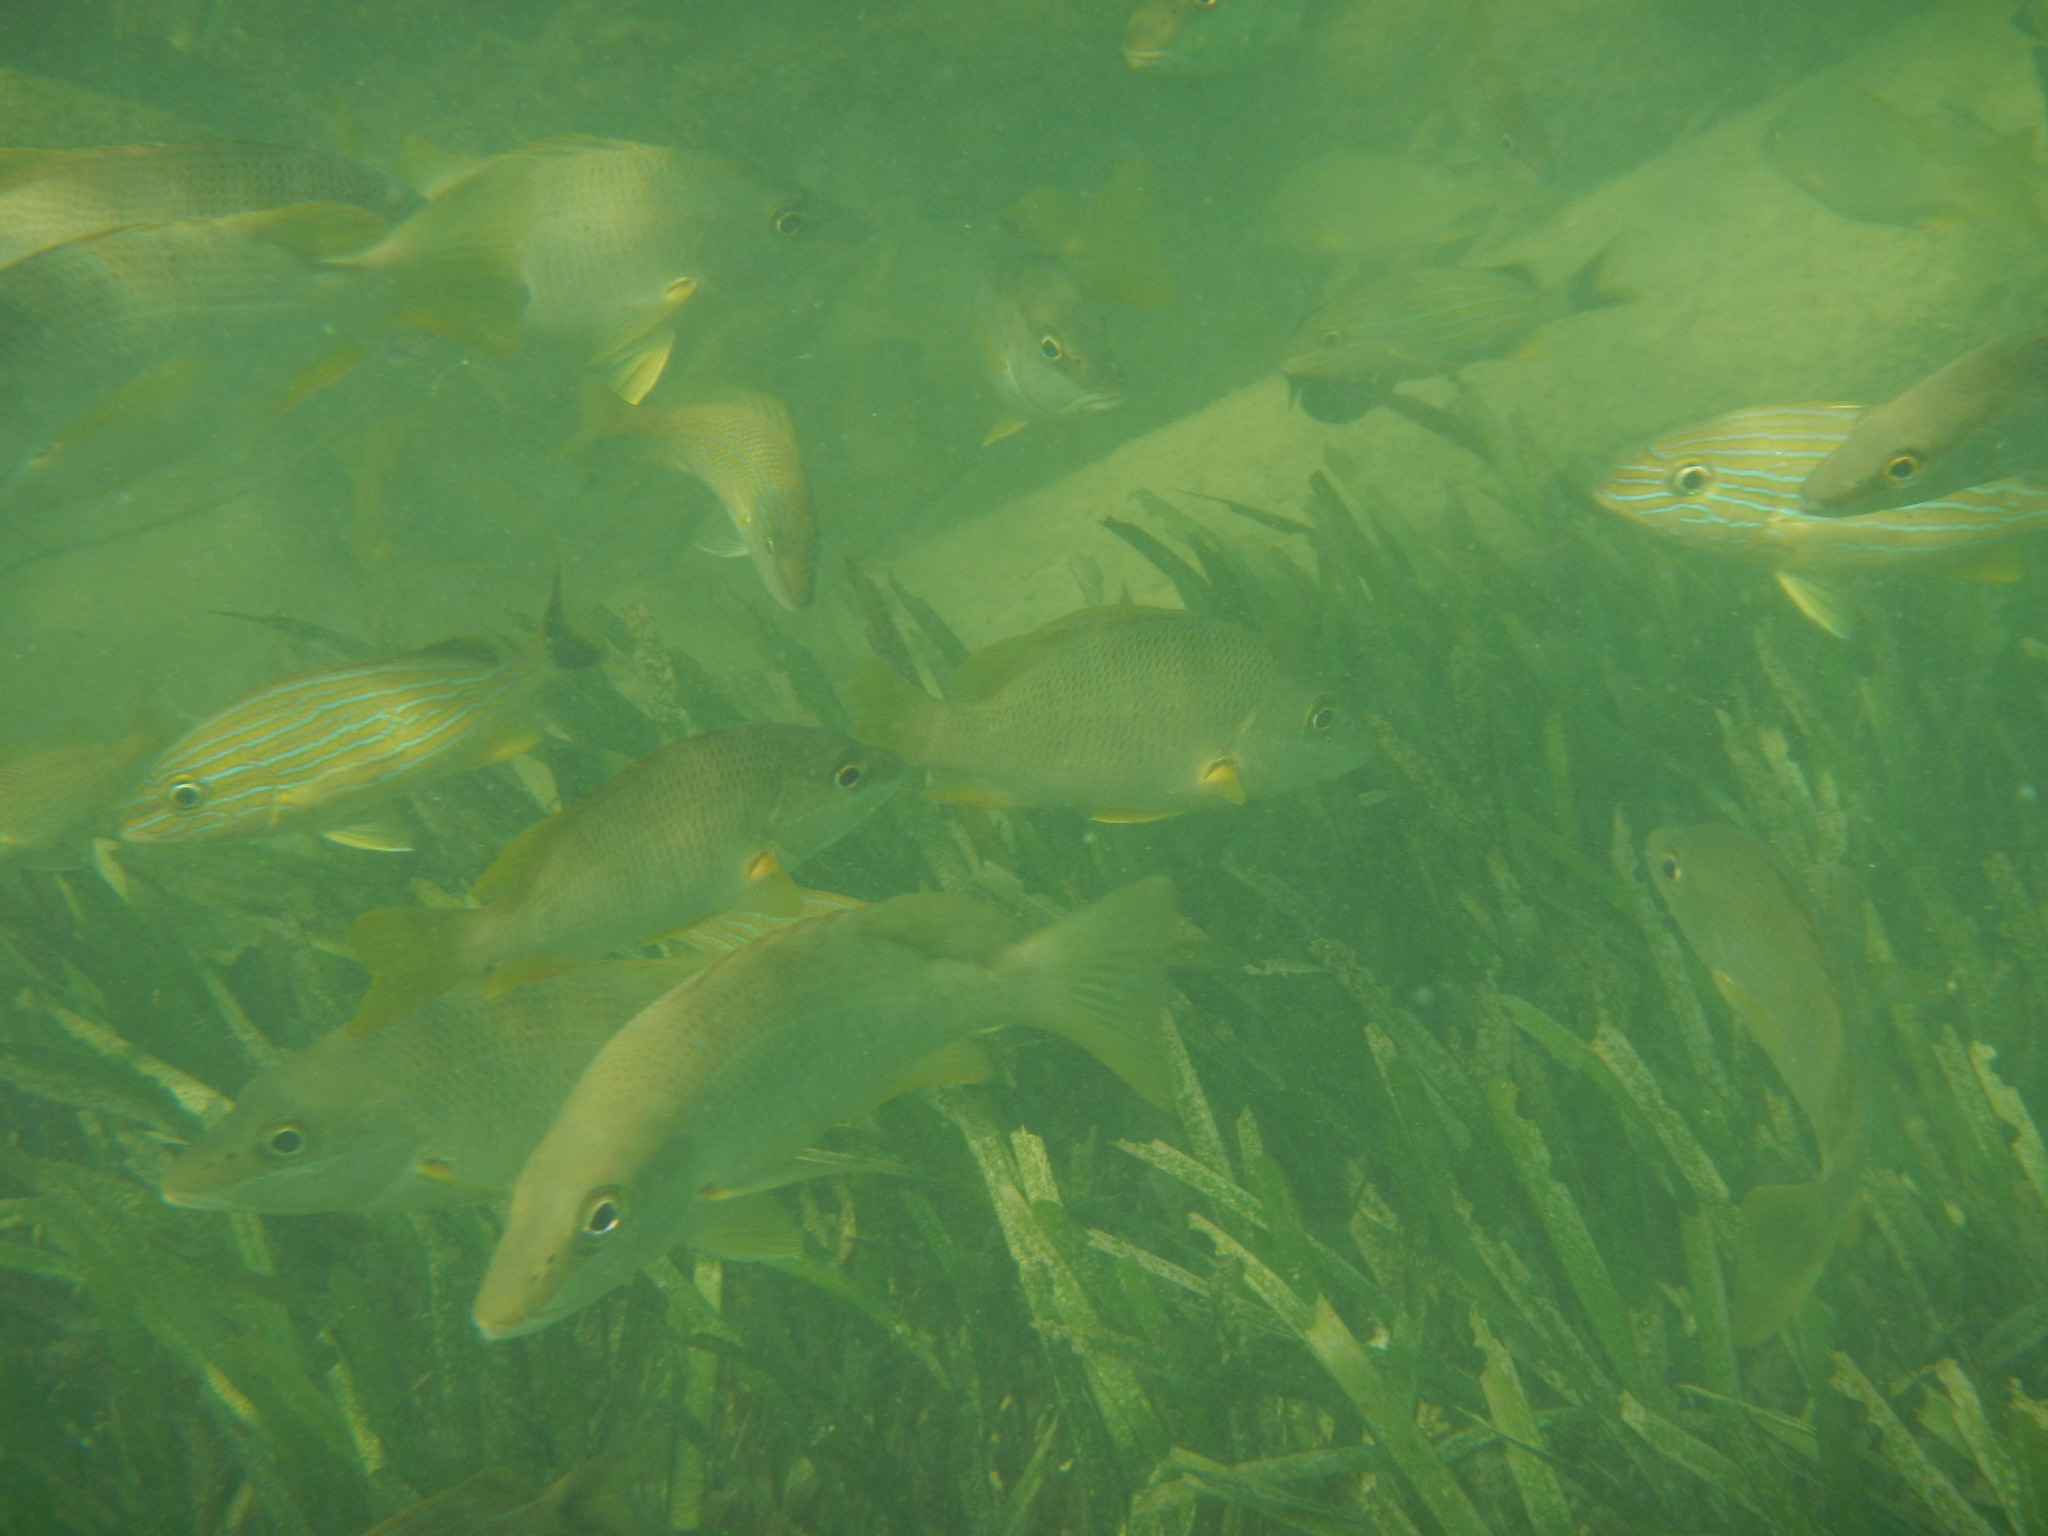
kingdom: Animalia
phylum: Chordata
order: Perciformes
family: Lutjanidae
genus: Lutjanus
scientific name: Lutjanus apodus
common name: Schoolmaster
